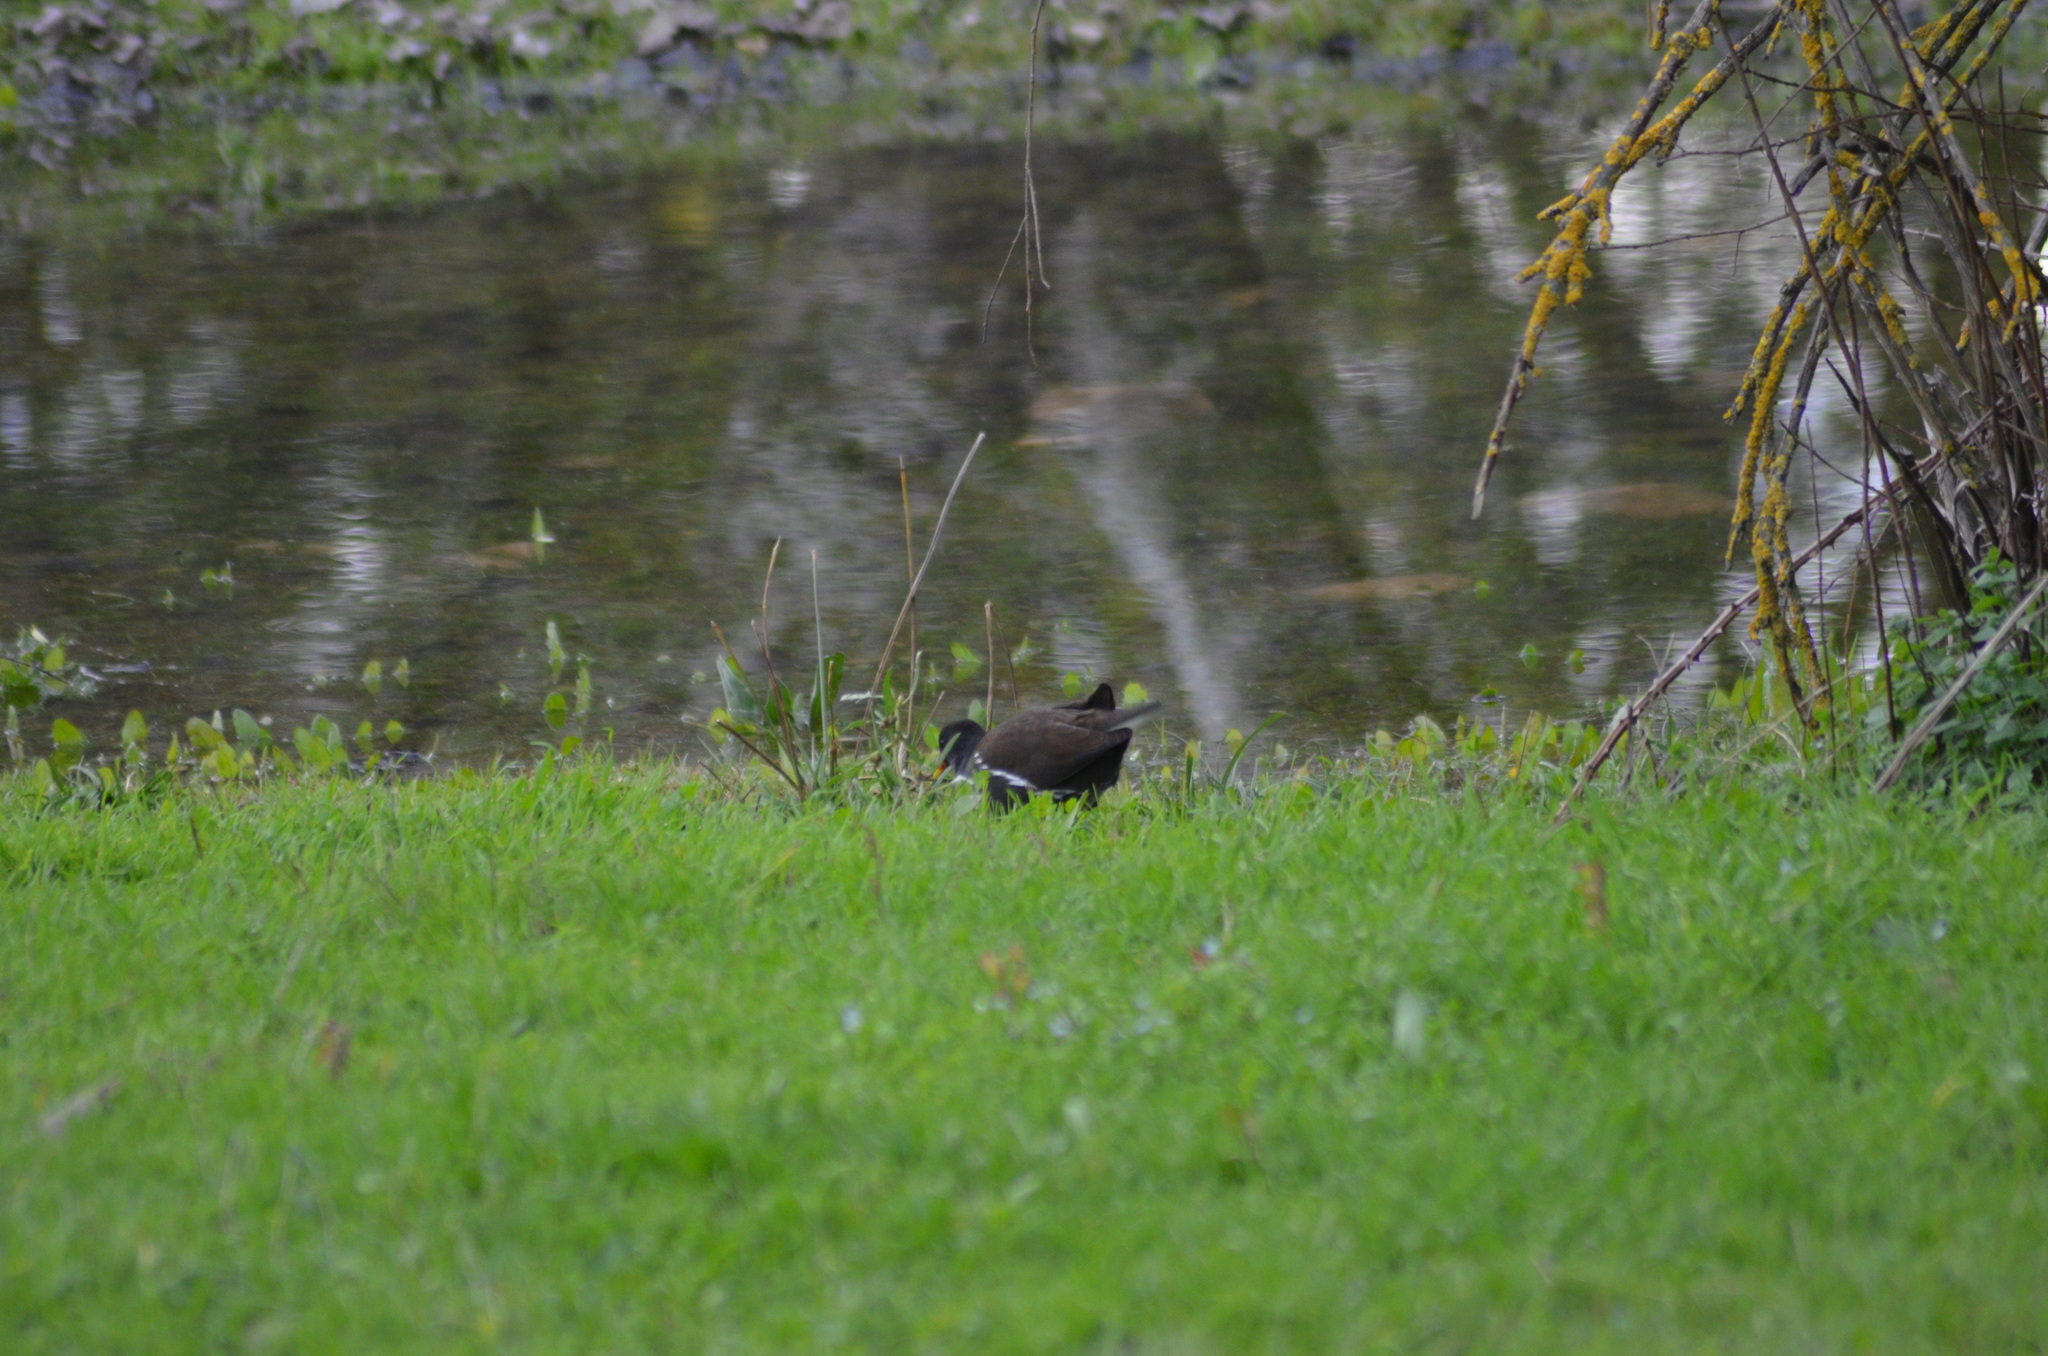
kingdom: Animalia
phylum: Chordata
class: Aves
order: Gruiformes
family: Rallidae
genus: Gallinula
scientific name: Gallinula chloropus
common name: Common moorhen
